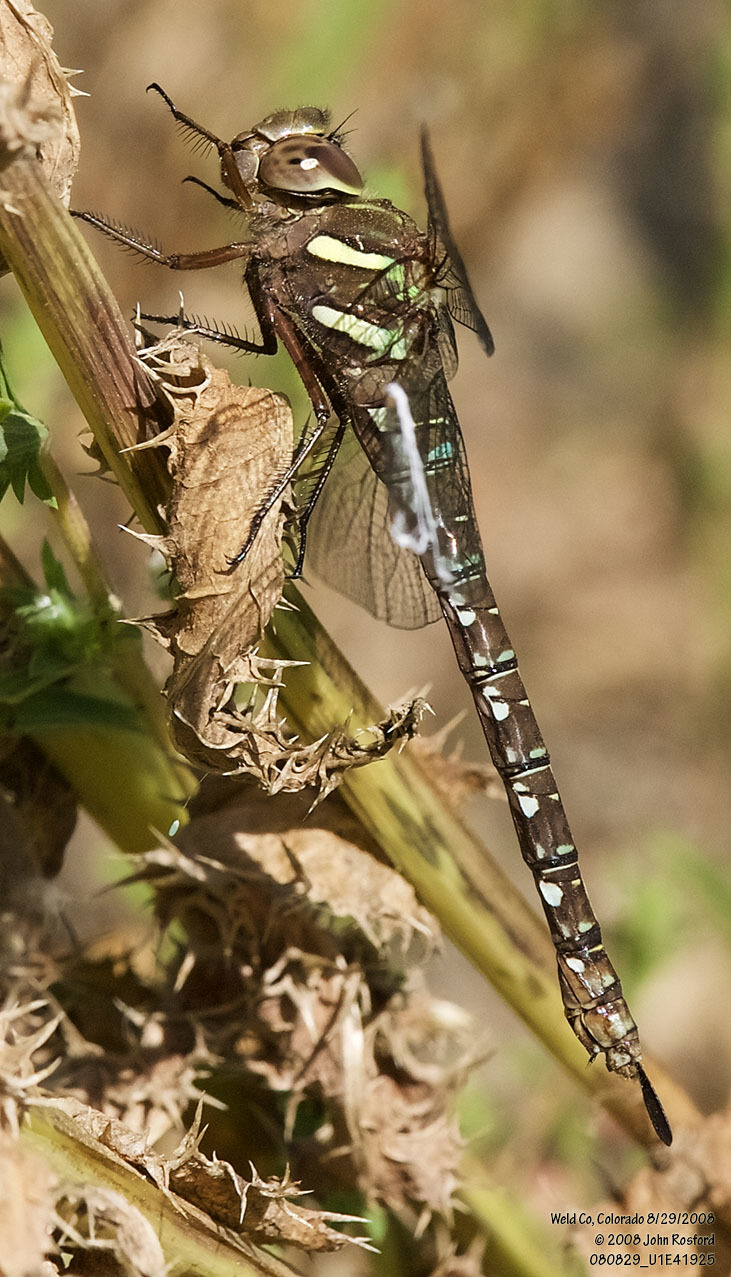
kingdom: Animalia
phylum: Arthropoda
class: Insecta
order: Odonata
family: Aeshnidae
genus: Aeshna
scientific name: Aeshna umbrosa
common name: Shadow darner
